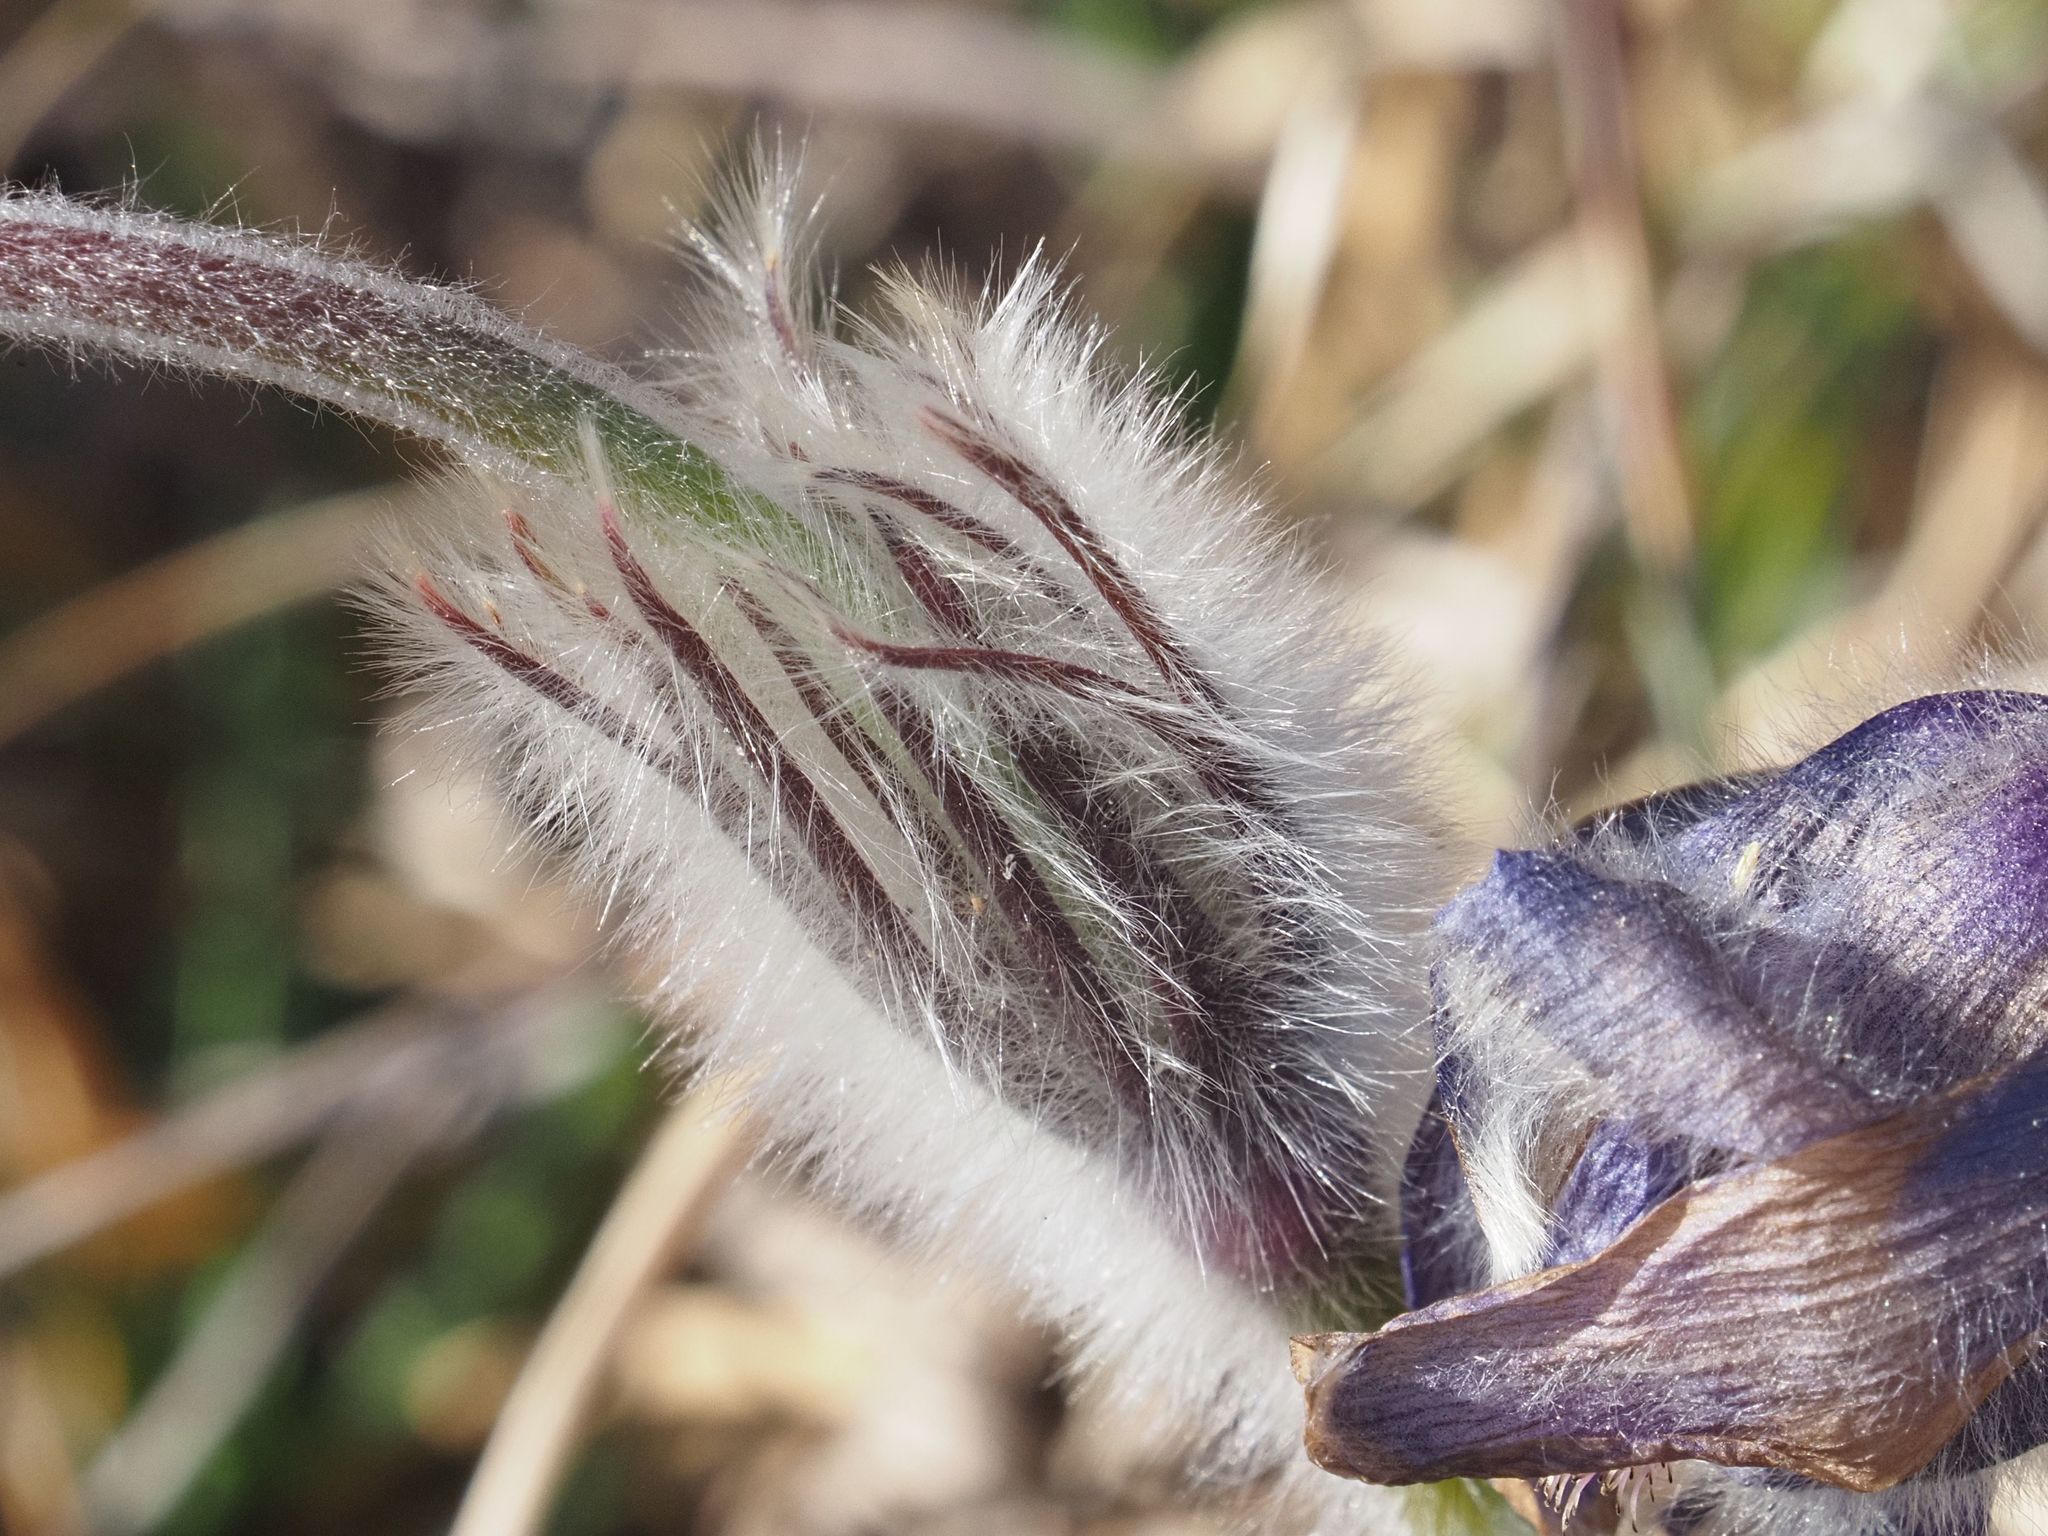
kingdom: Plantae
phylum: Tracheophyta
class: Magnoliopsida
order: Ranunculales
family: Ranunculaceae
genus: Pulsatilla
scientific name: Pulsatilla grandis
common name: Greater pasque flower
